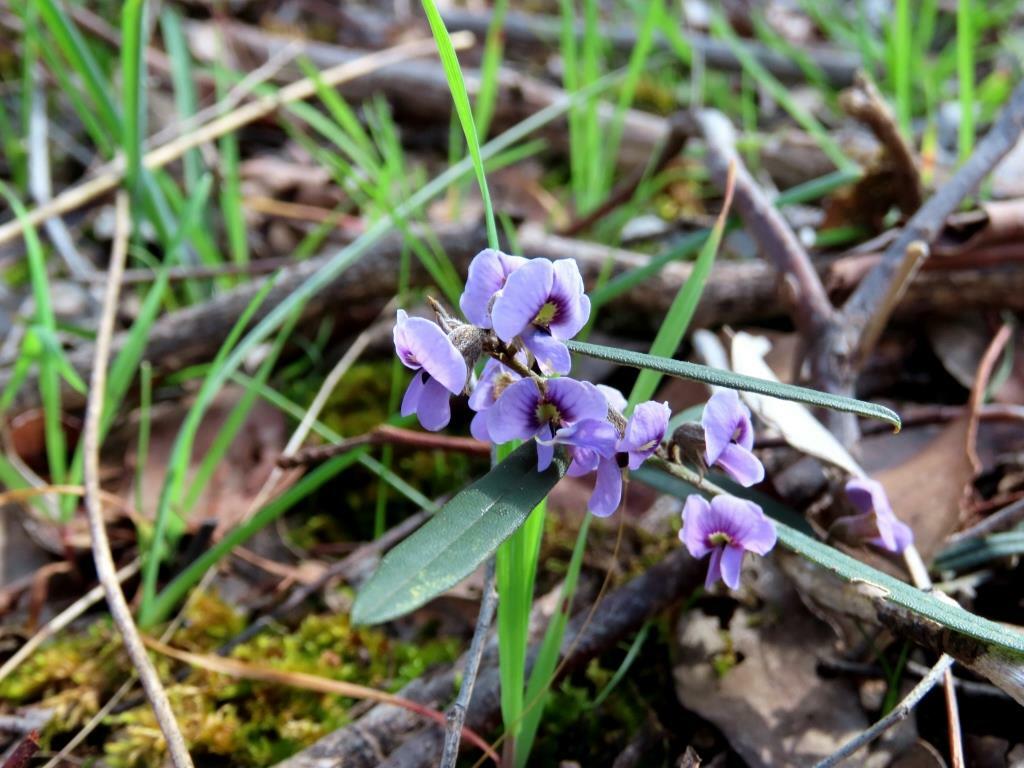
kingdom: Plantae
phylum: Tracheophyta
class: Magnoliopsida
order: Fabales
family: Fabaceae
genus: Hovea
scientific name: Hovea heterophylla
